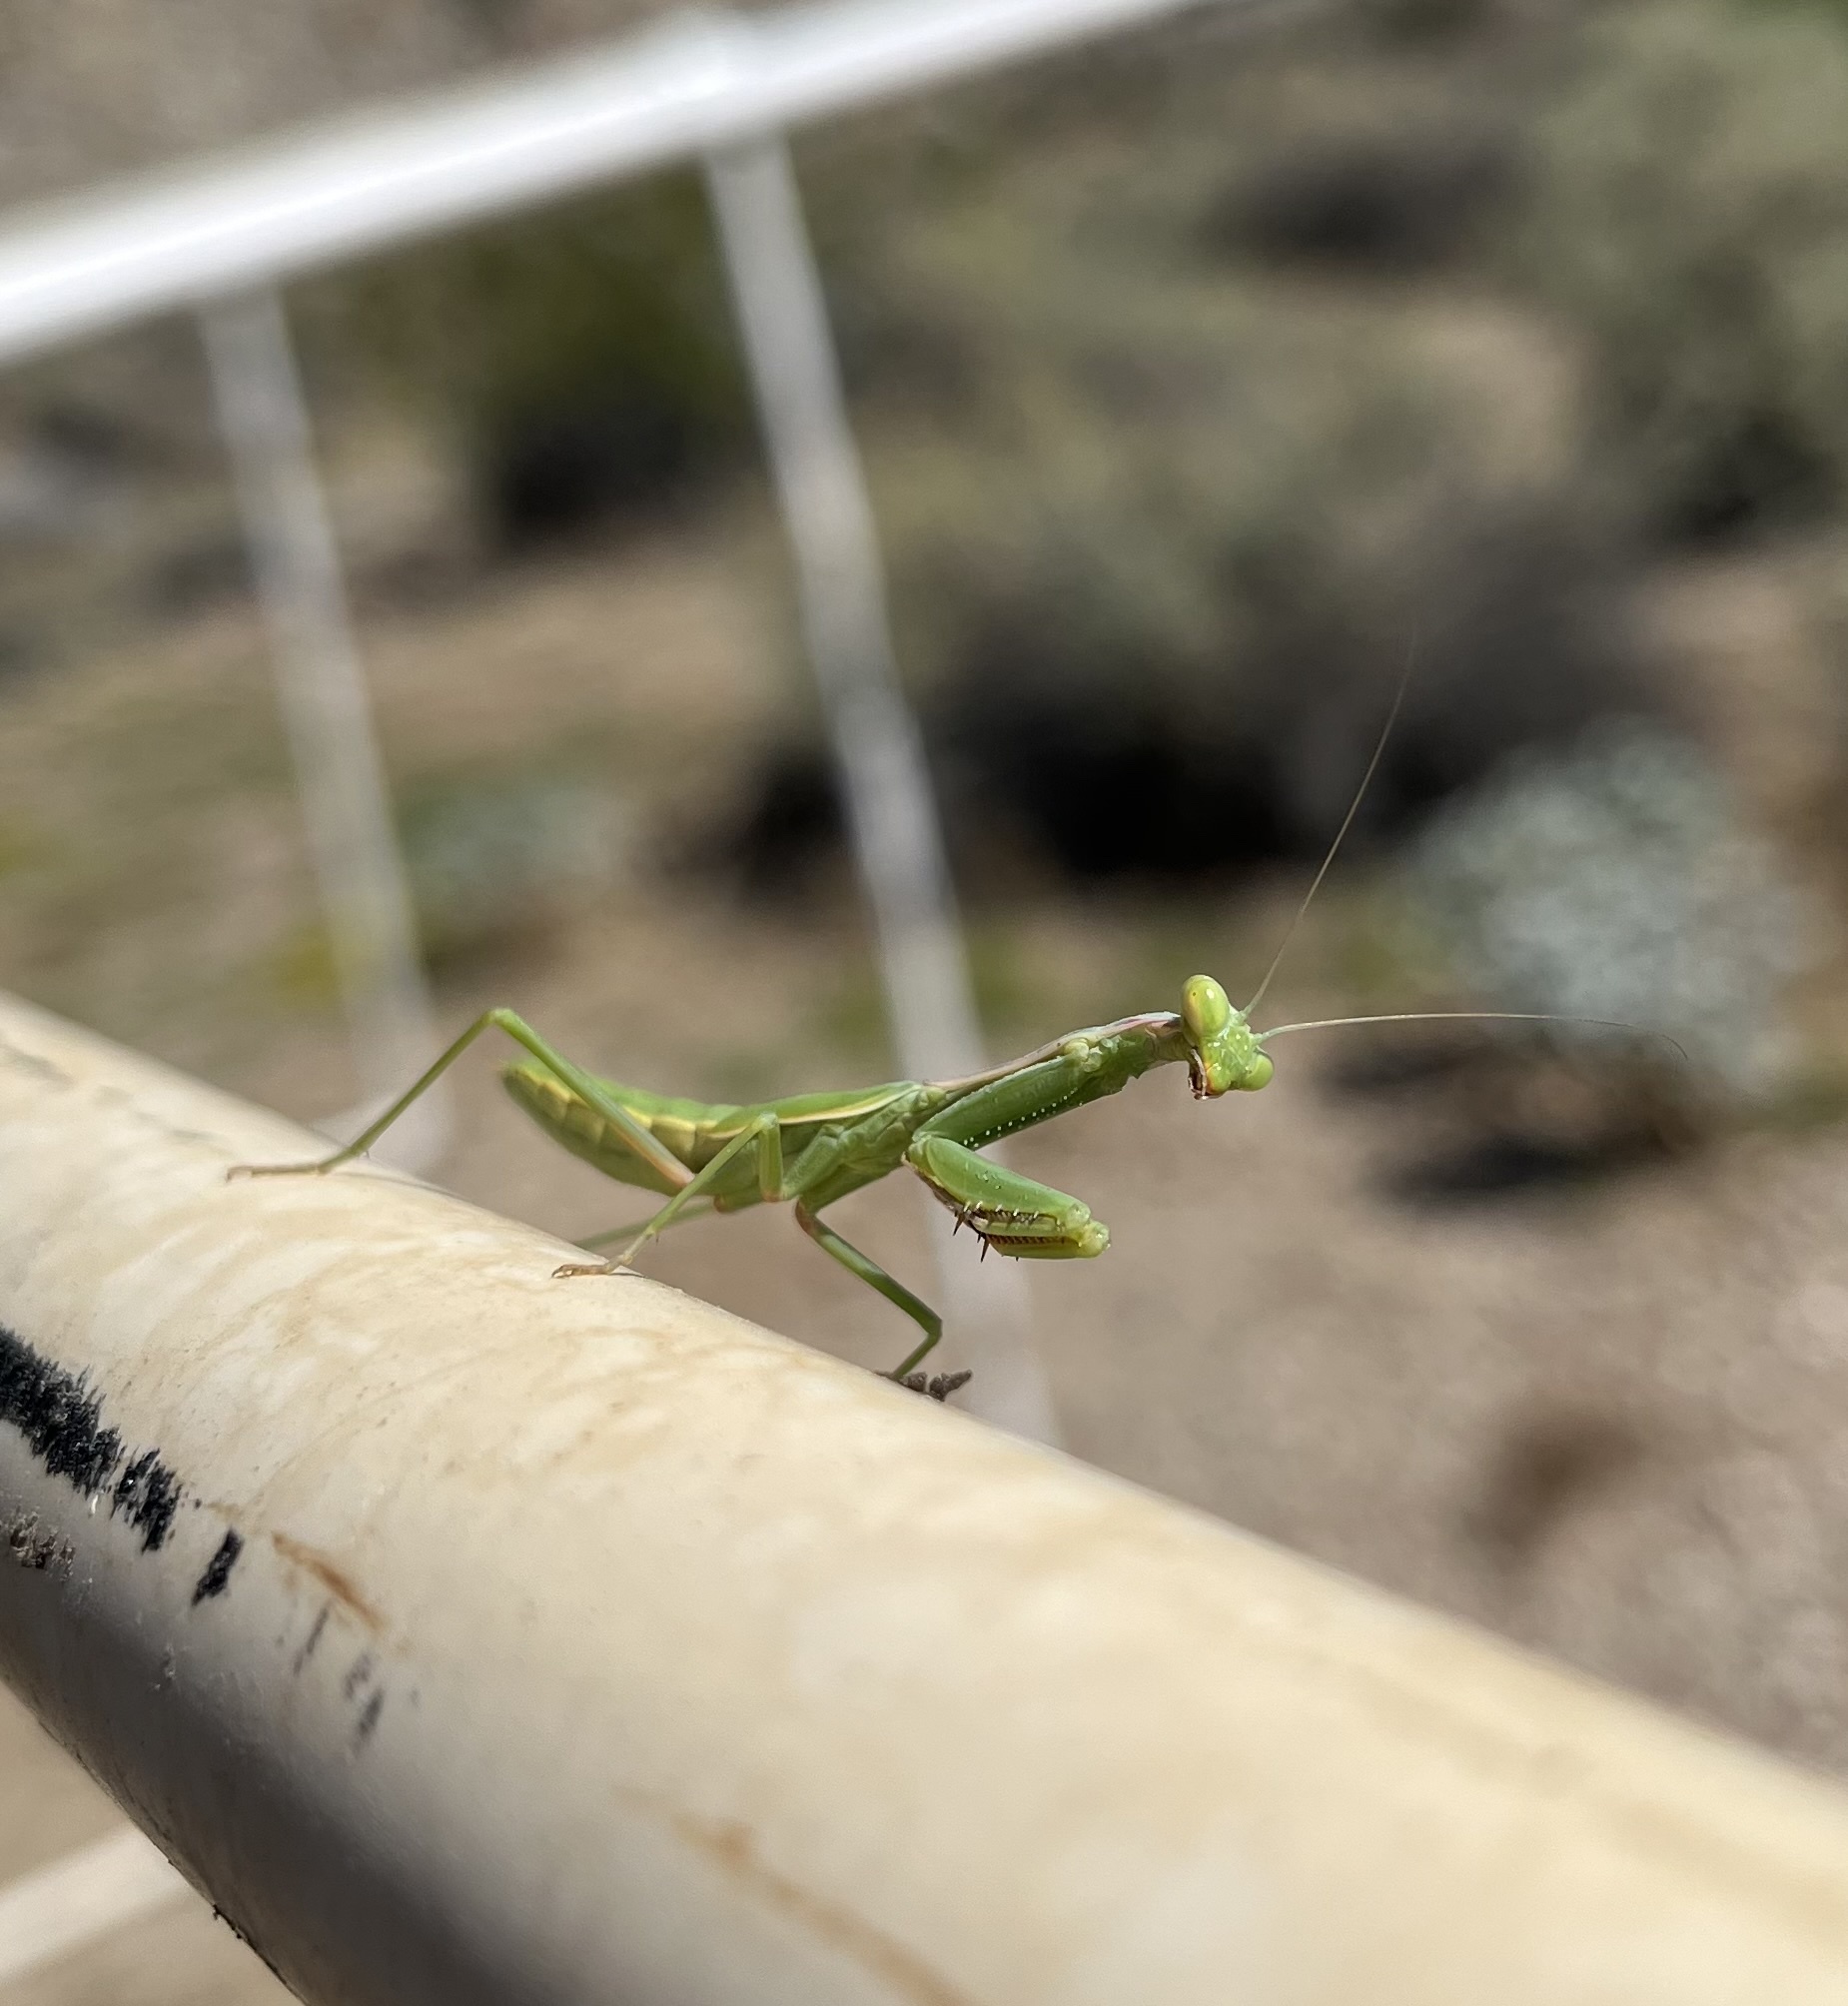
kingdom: Animalia
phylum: Arthropoda
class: Insecta
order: Mantodea
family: Eremiaphilidae
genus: Iris
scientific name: Iris oratoria
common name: Mediterranean mantis
